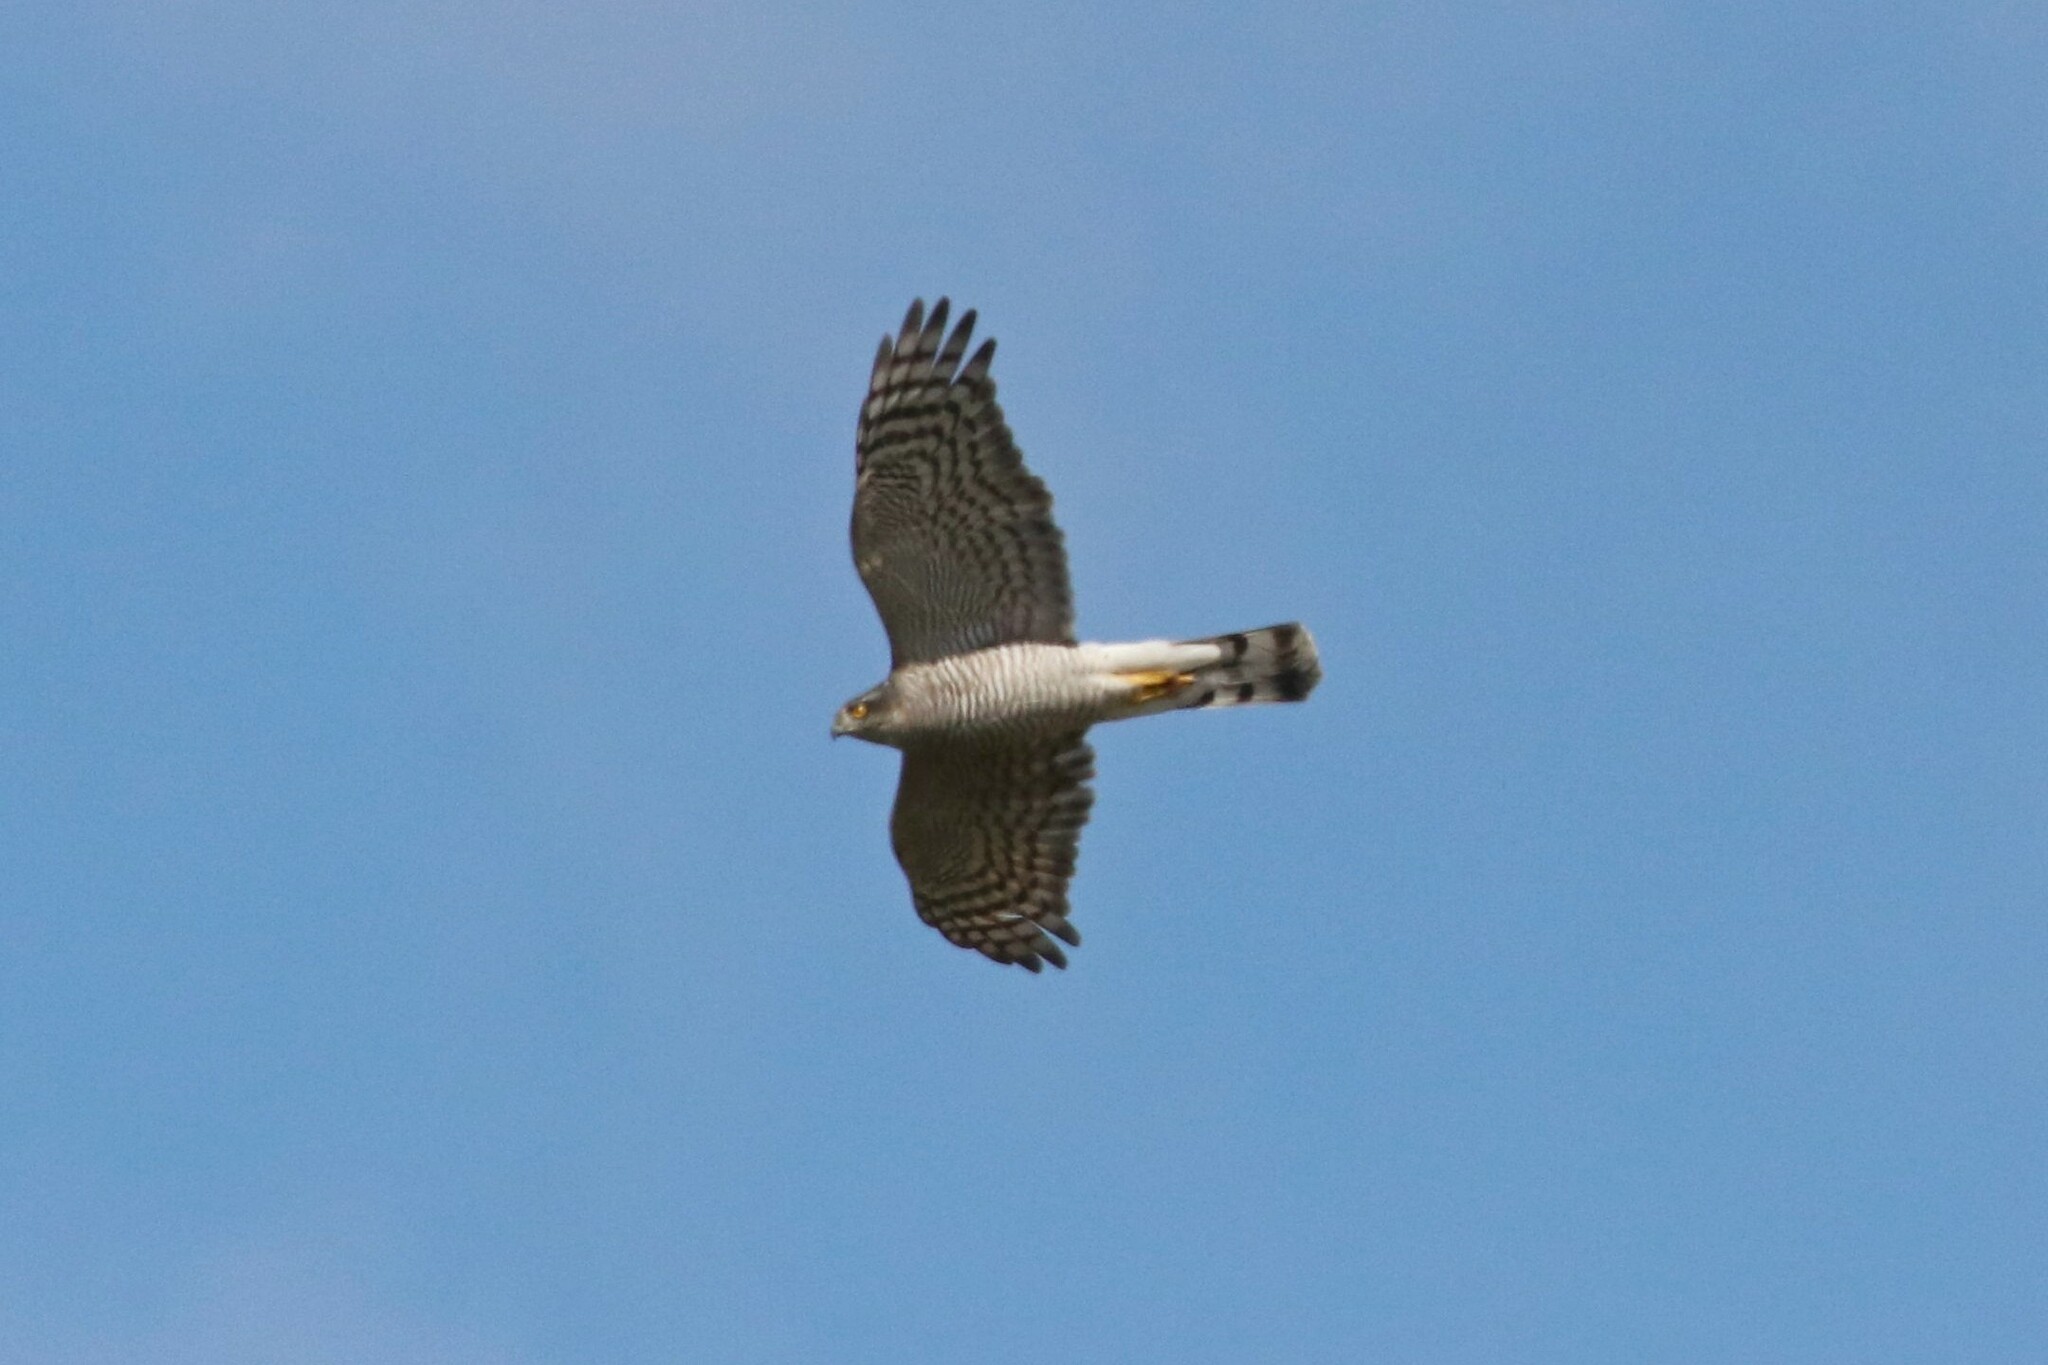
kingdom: Animalia
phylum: Chordata
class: Aves
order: Accipitriformes
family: Accipitridae
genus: Accipiter
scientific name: Accipiter nisus
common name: Eurasian sparrowhawk
